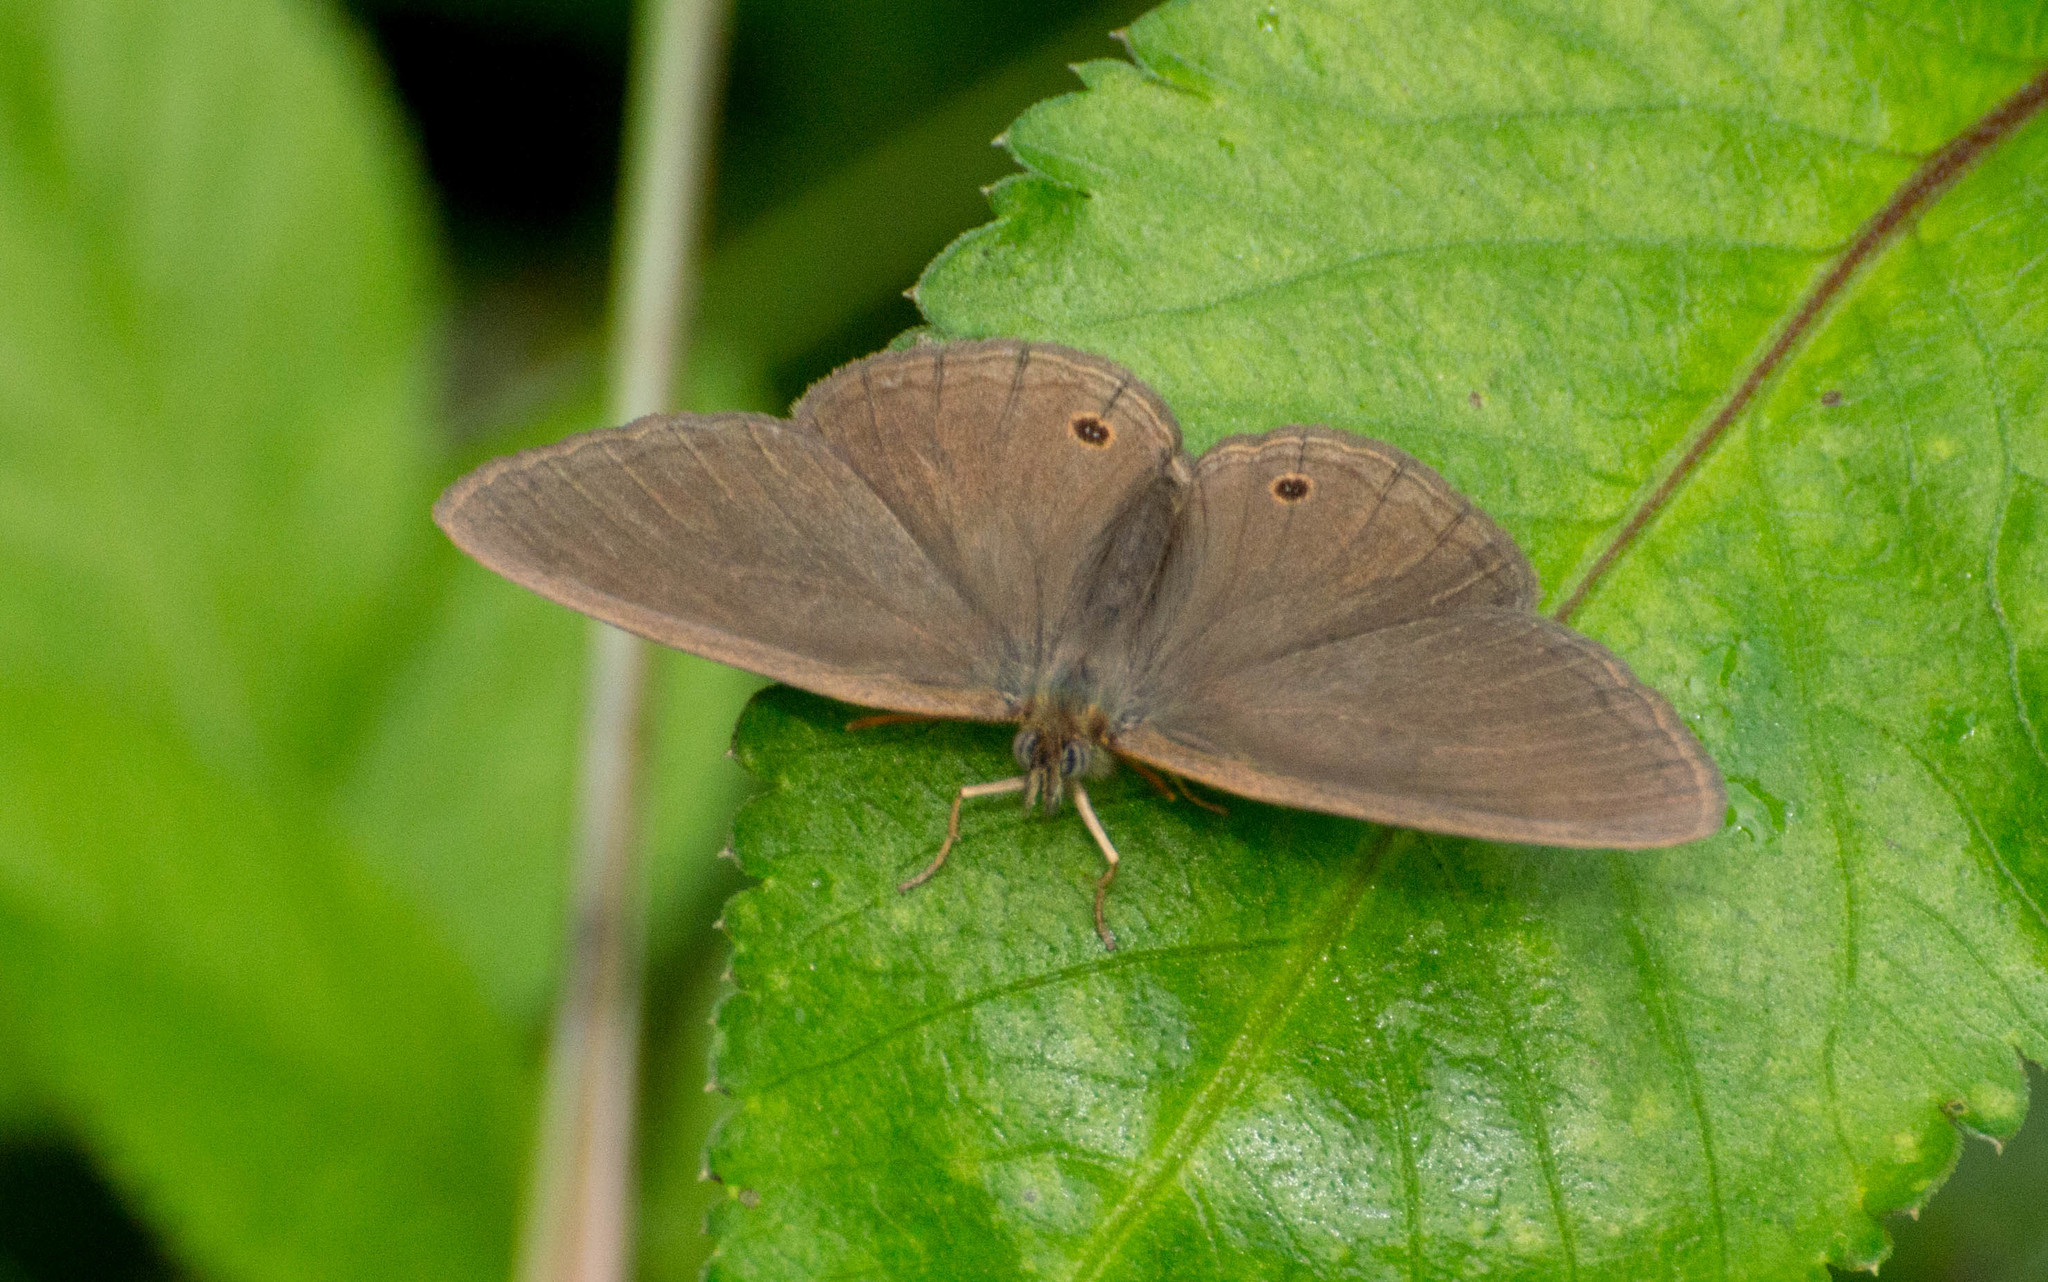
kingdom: Animalia
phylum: Arthropoda
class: Insecta
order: Lepidoptera
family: Nymphalidae
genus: Yphthimoides
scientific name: Yphthimoides celmis
